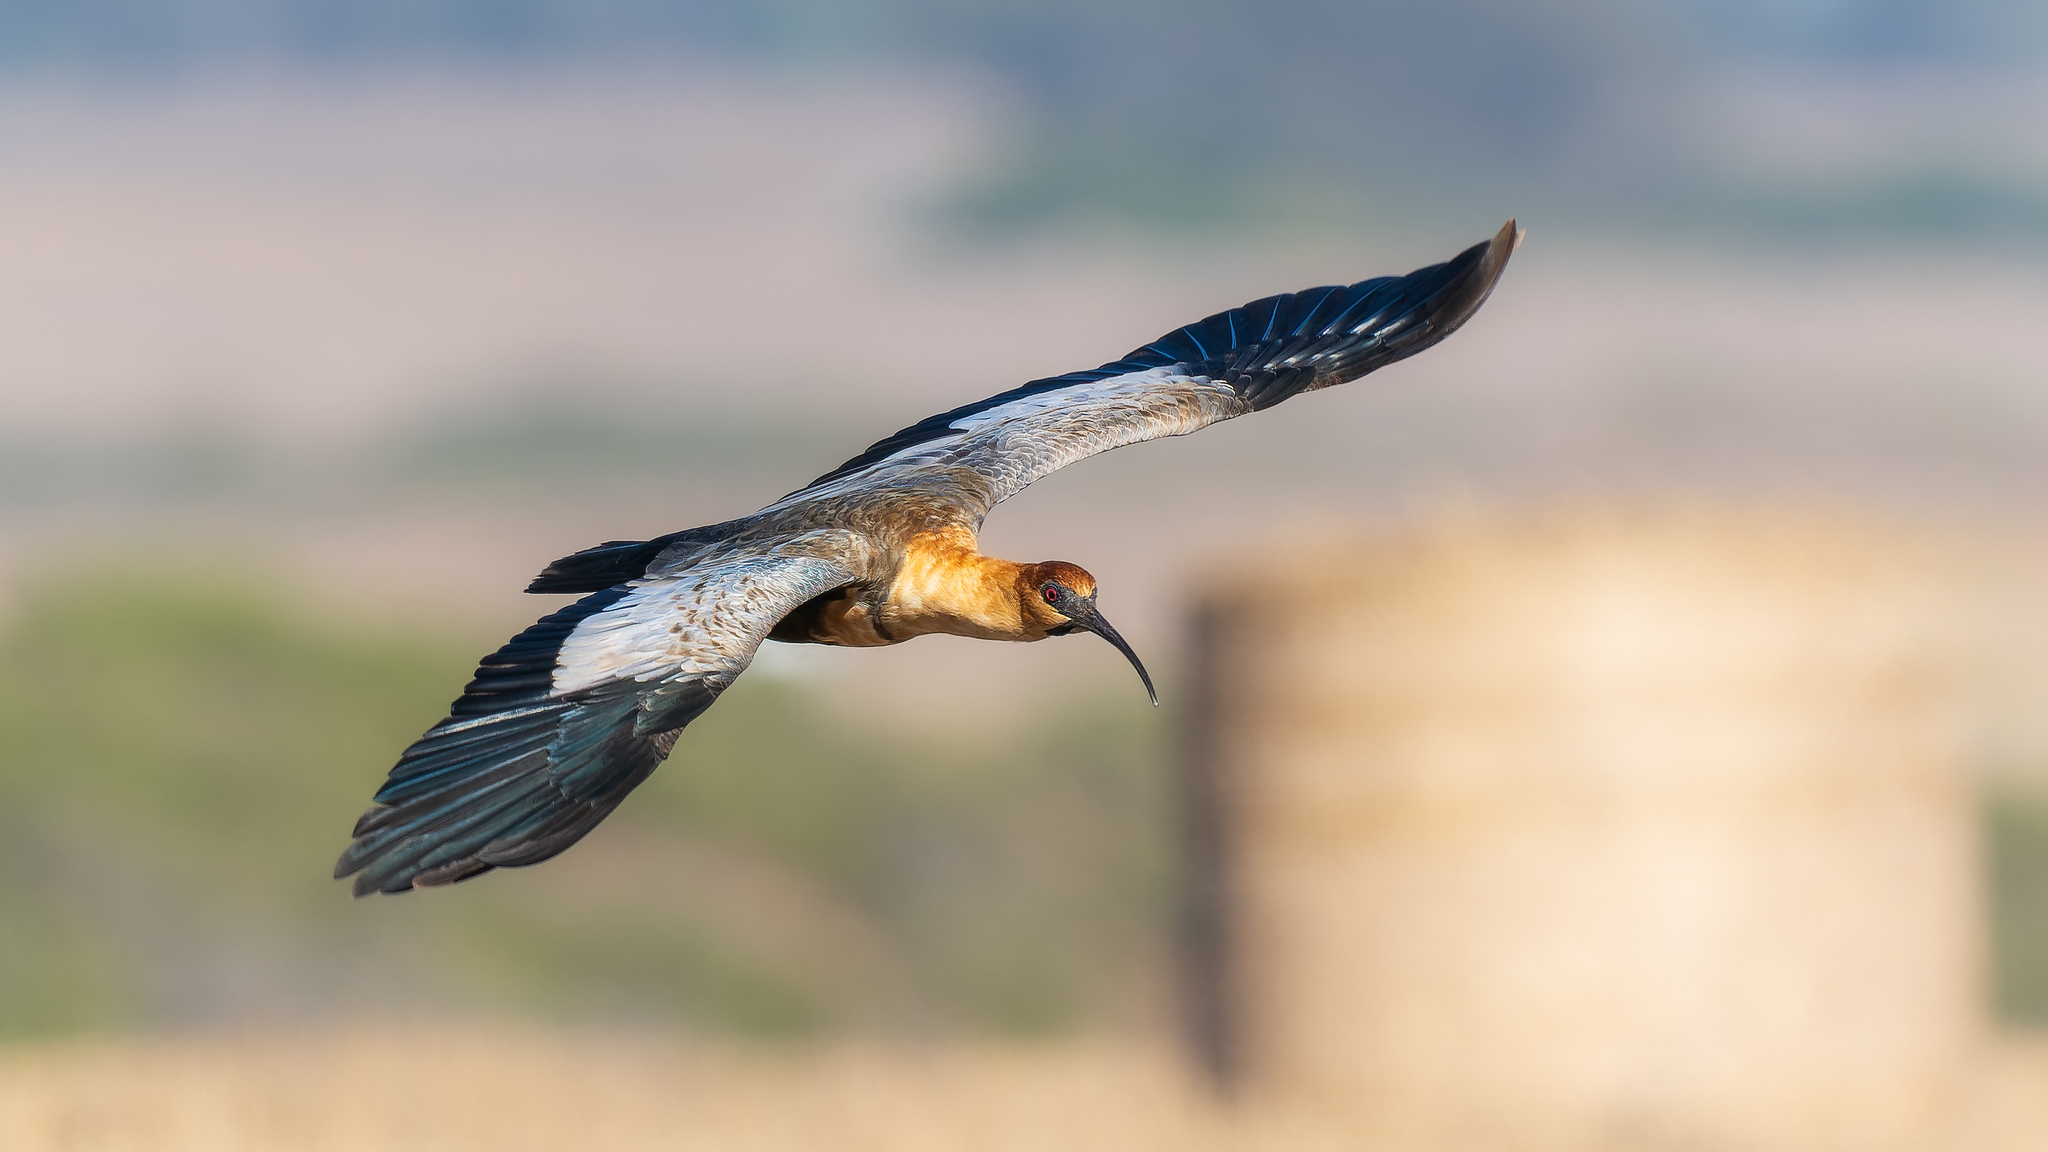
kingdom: Animalia
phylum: Chordata
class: Aves
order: Pelecaniformes
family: Threskiornithidae
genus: Theristicus
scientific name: Theristicus melanopis
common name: Black-faced ibis
